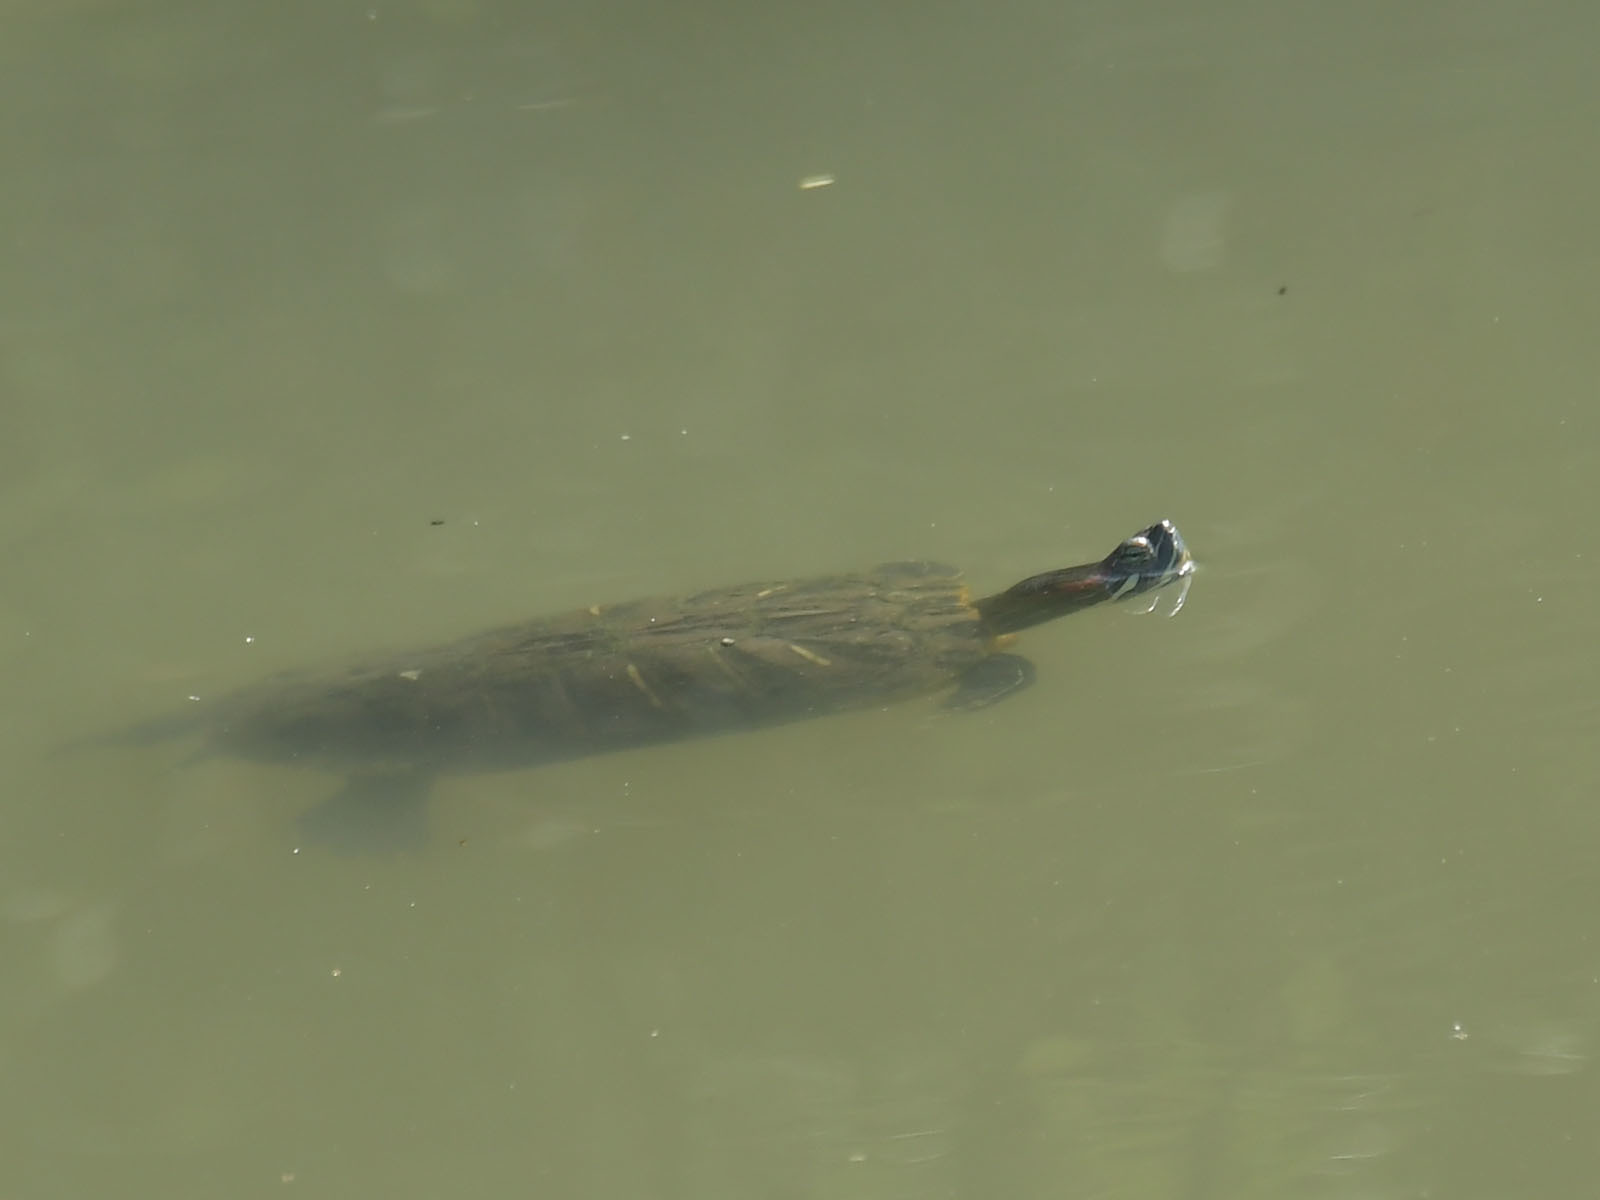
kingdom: Animalia
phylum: Chordata
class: Testudines
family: Emydidae
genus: Trachemys
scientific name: Trachemys scripta
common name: Slider
